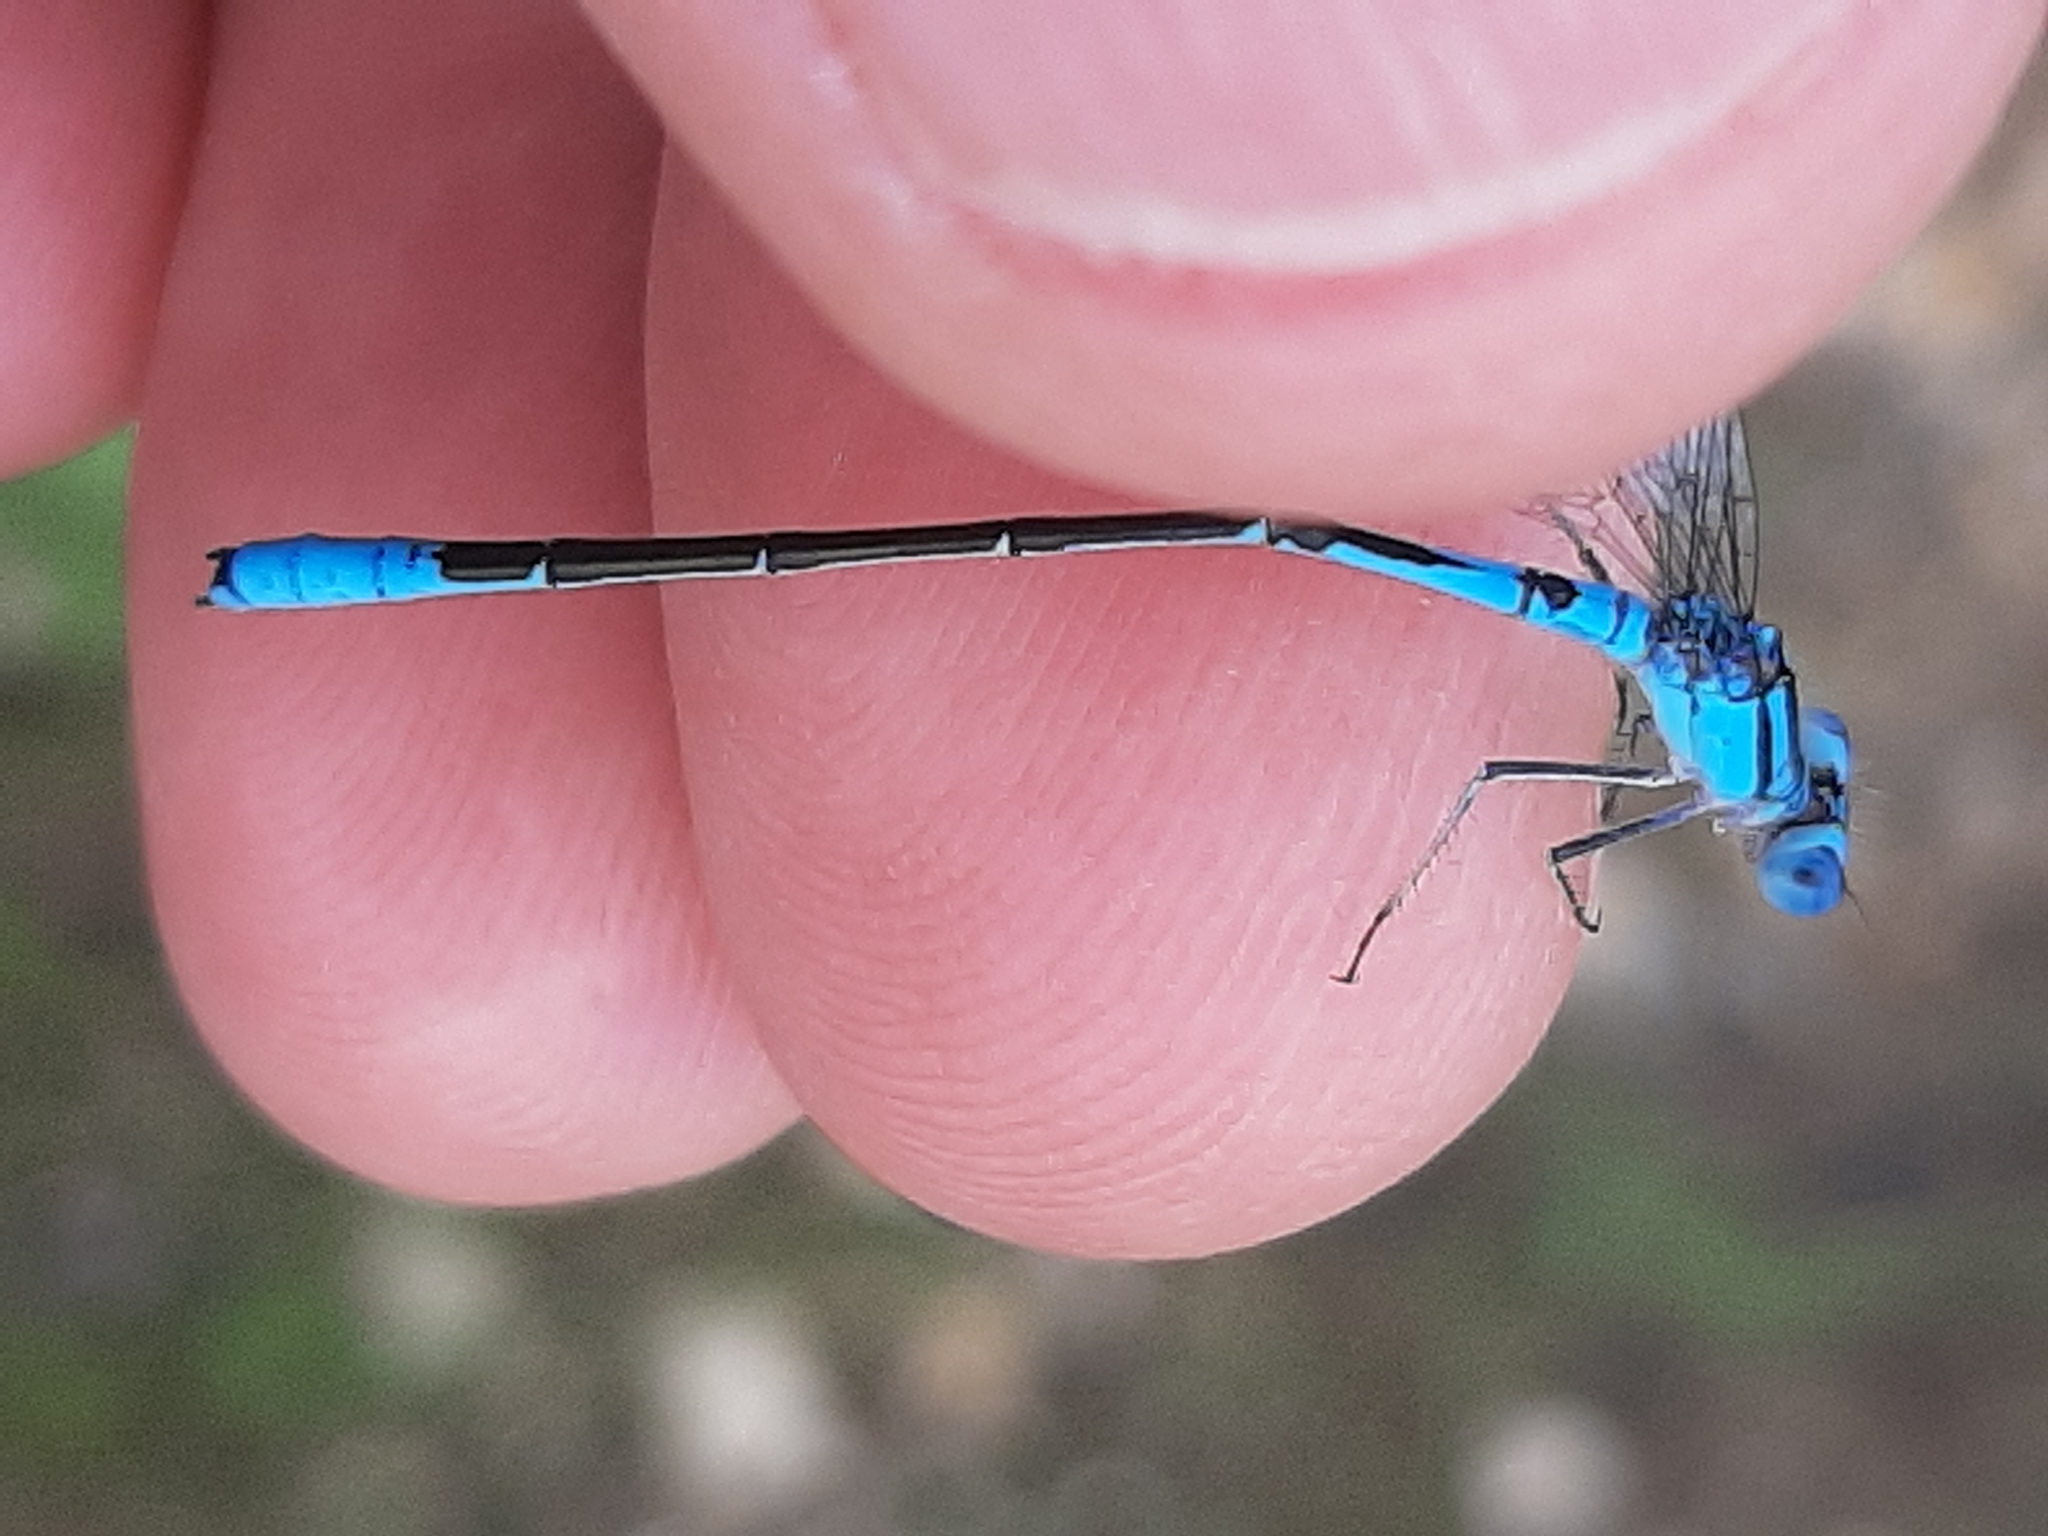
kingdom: Animalia
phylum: Arthropoda
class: Insecta
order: Odonata
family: Coenagrionidae
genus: Enallagma
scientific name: Enallagma aspersum
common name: Azure bluet
